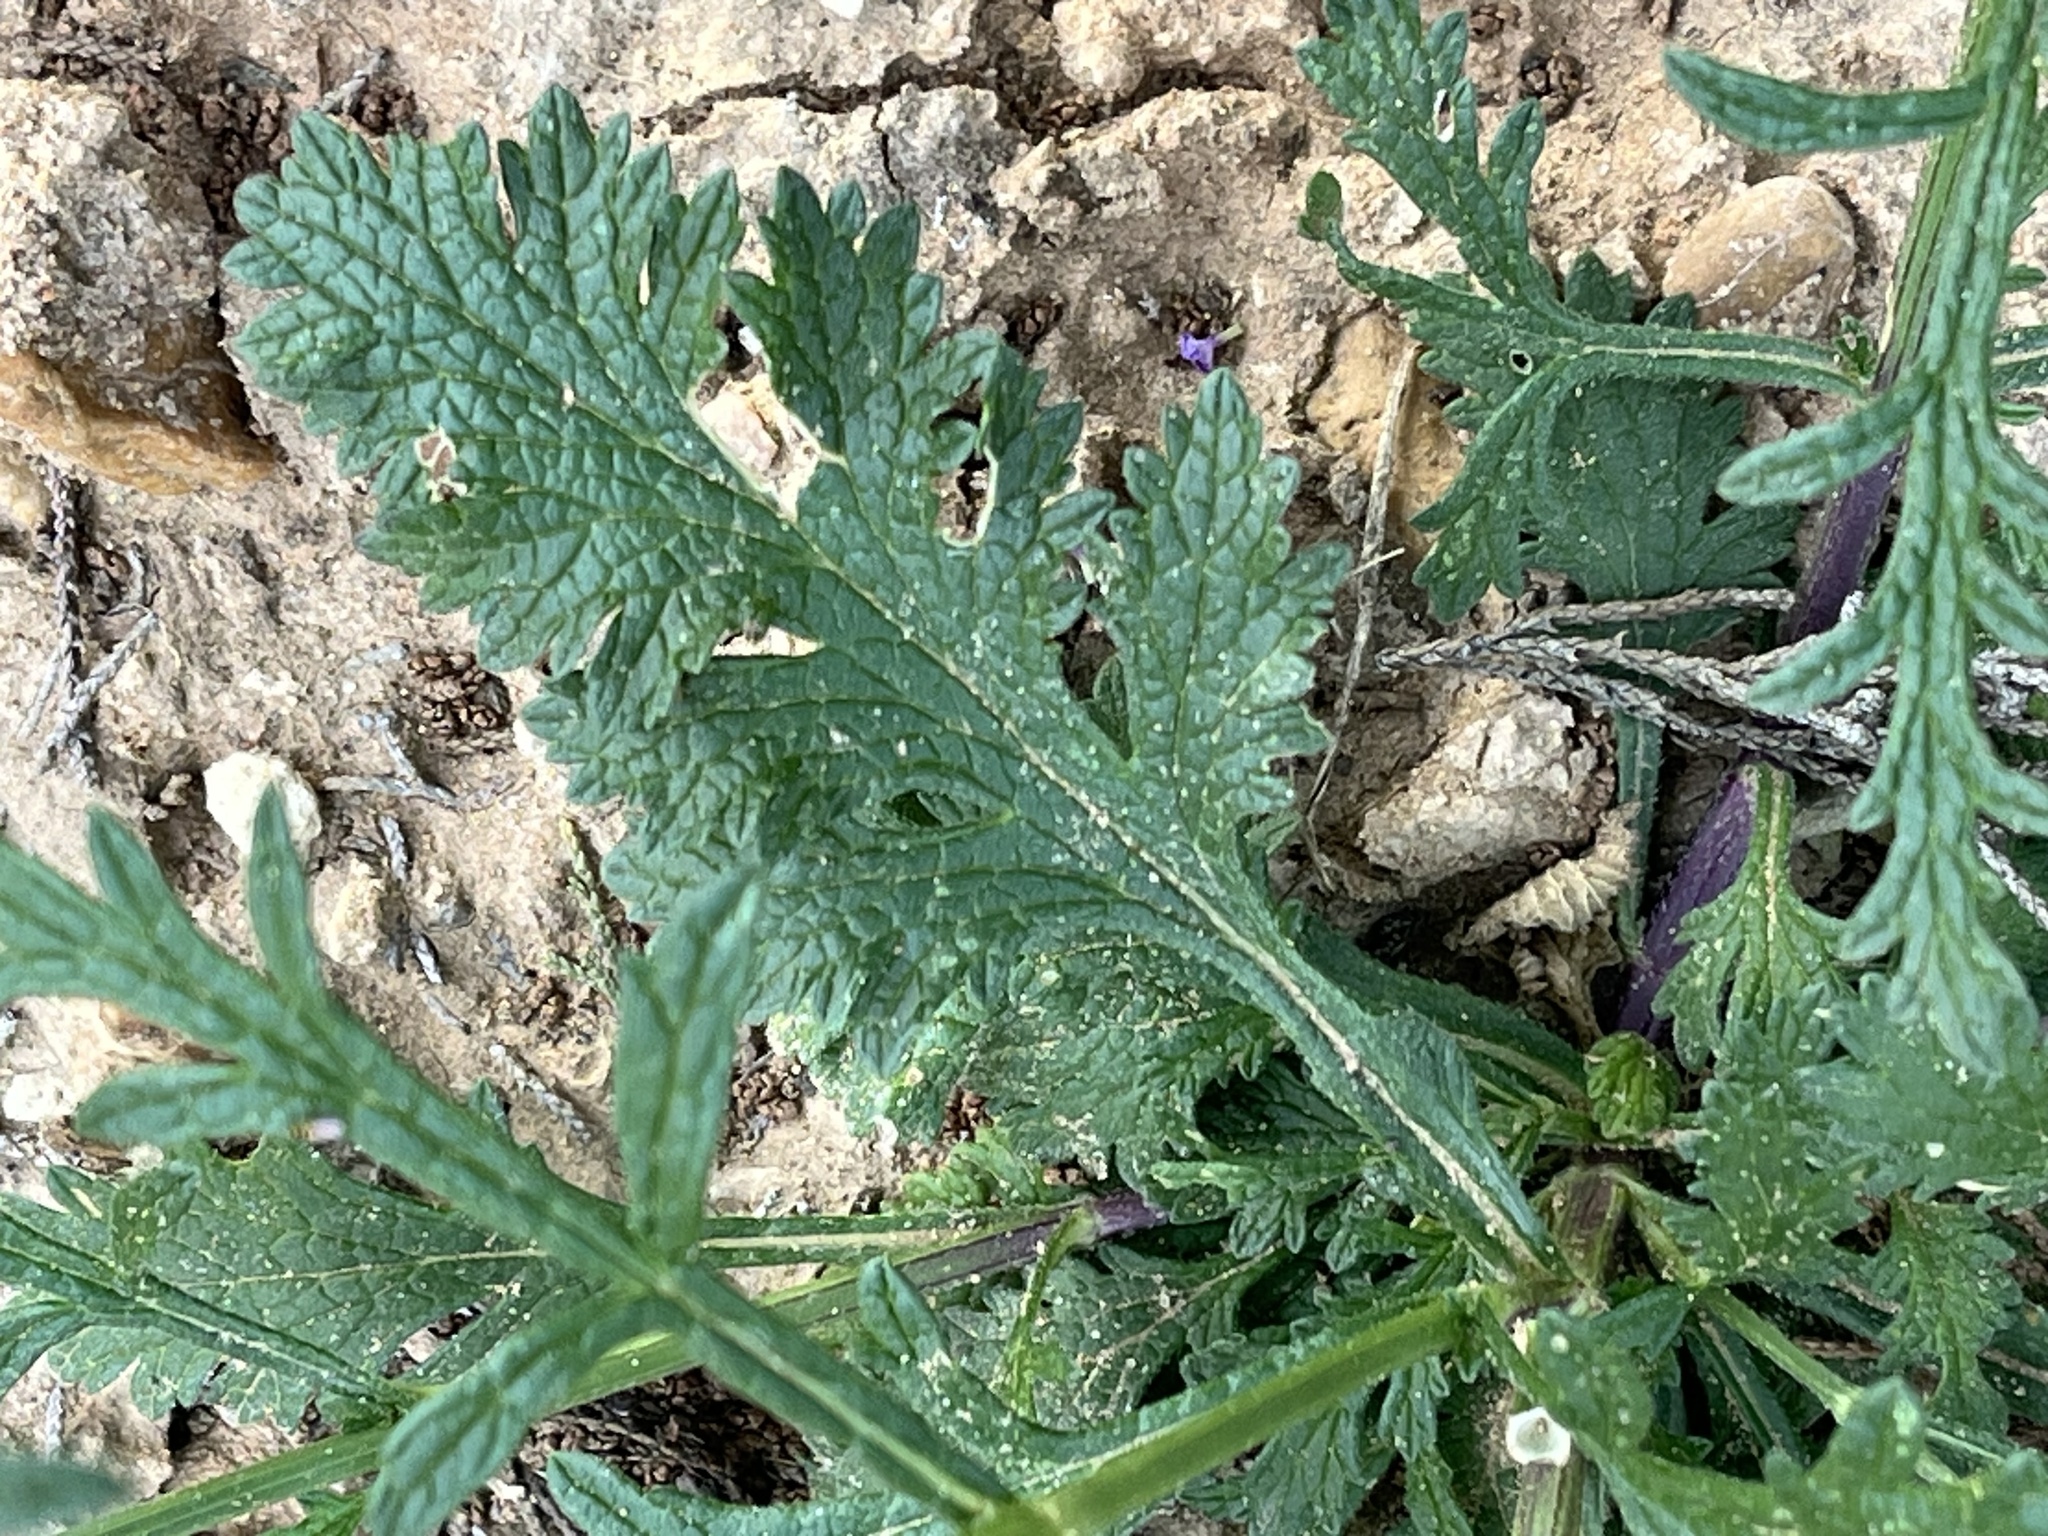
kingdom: Plantae
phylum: Tracheophyta
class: Magnoliopsida
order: Lamiales
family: Verbenaceae
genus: Verbena
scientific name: Verbena halei
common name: Texas vervain
